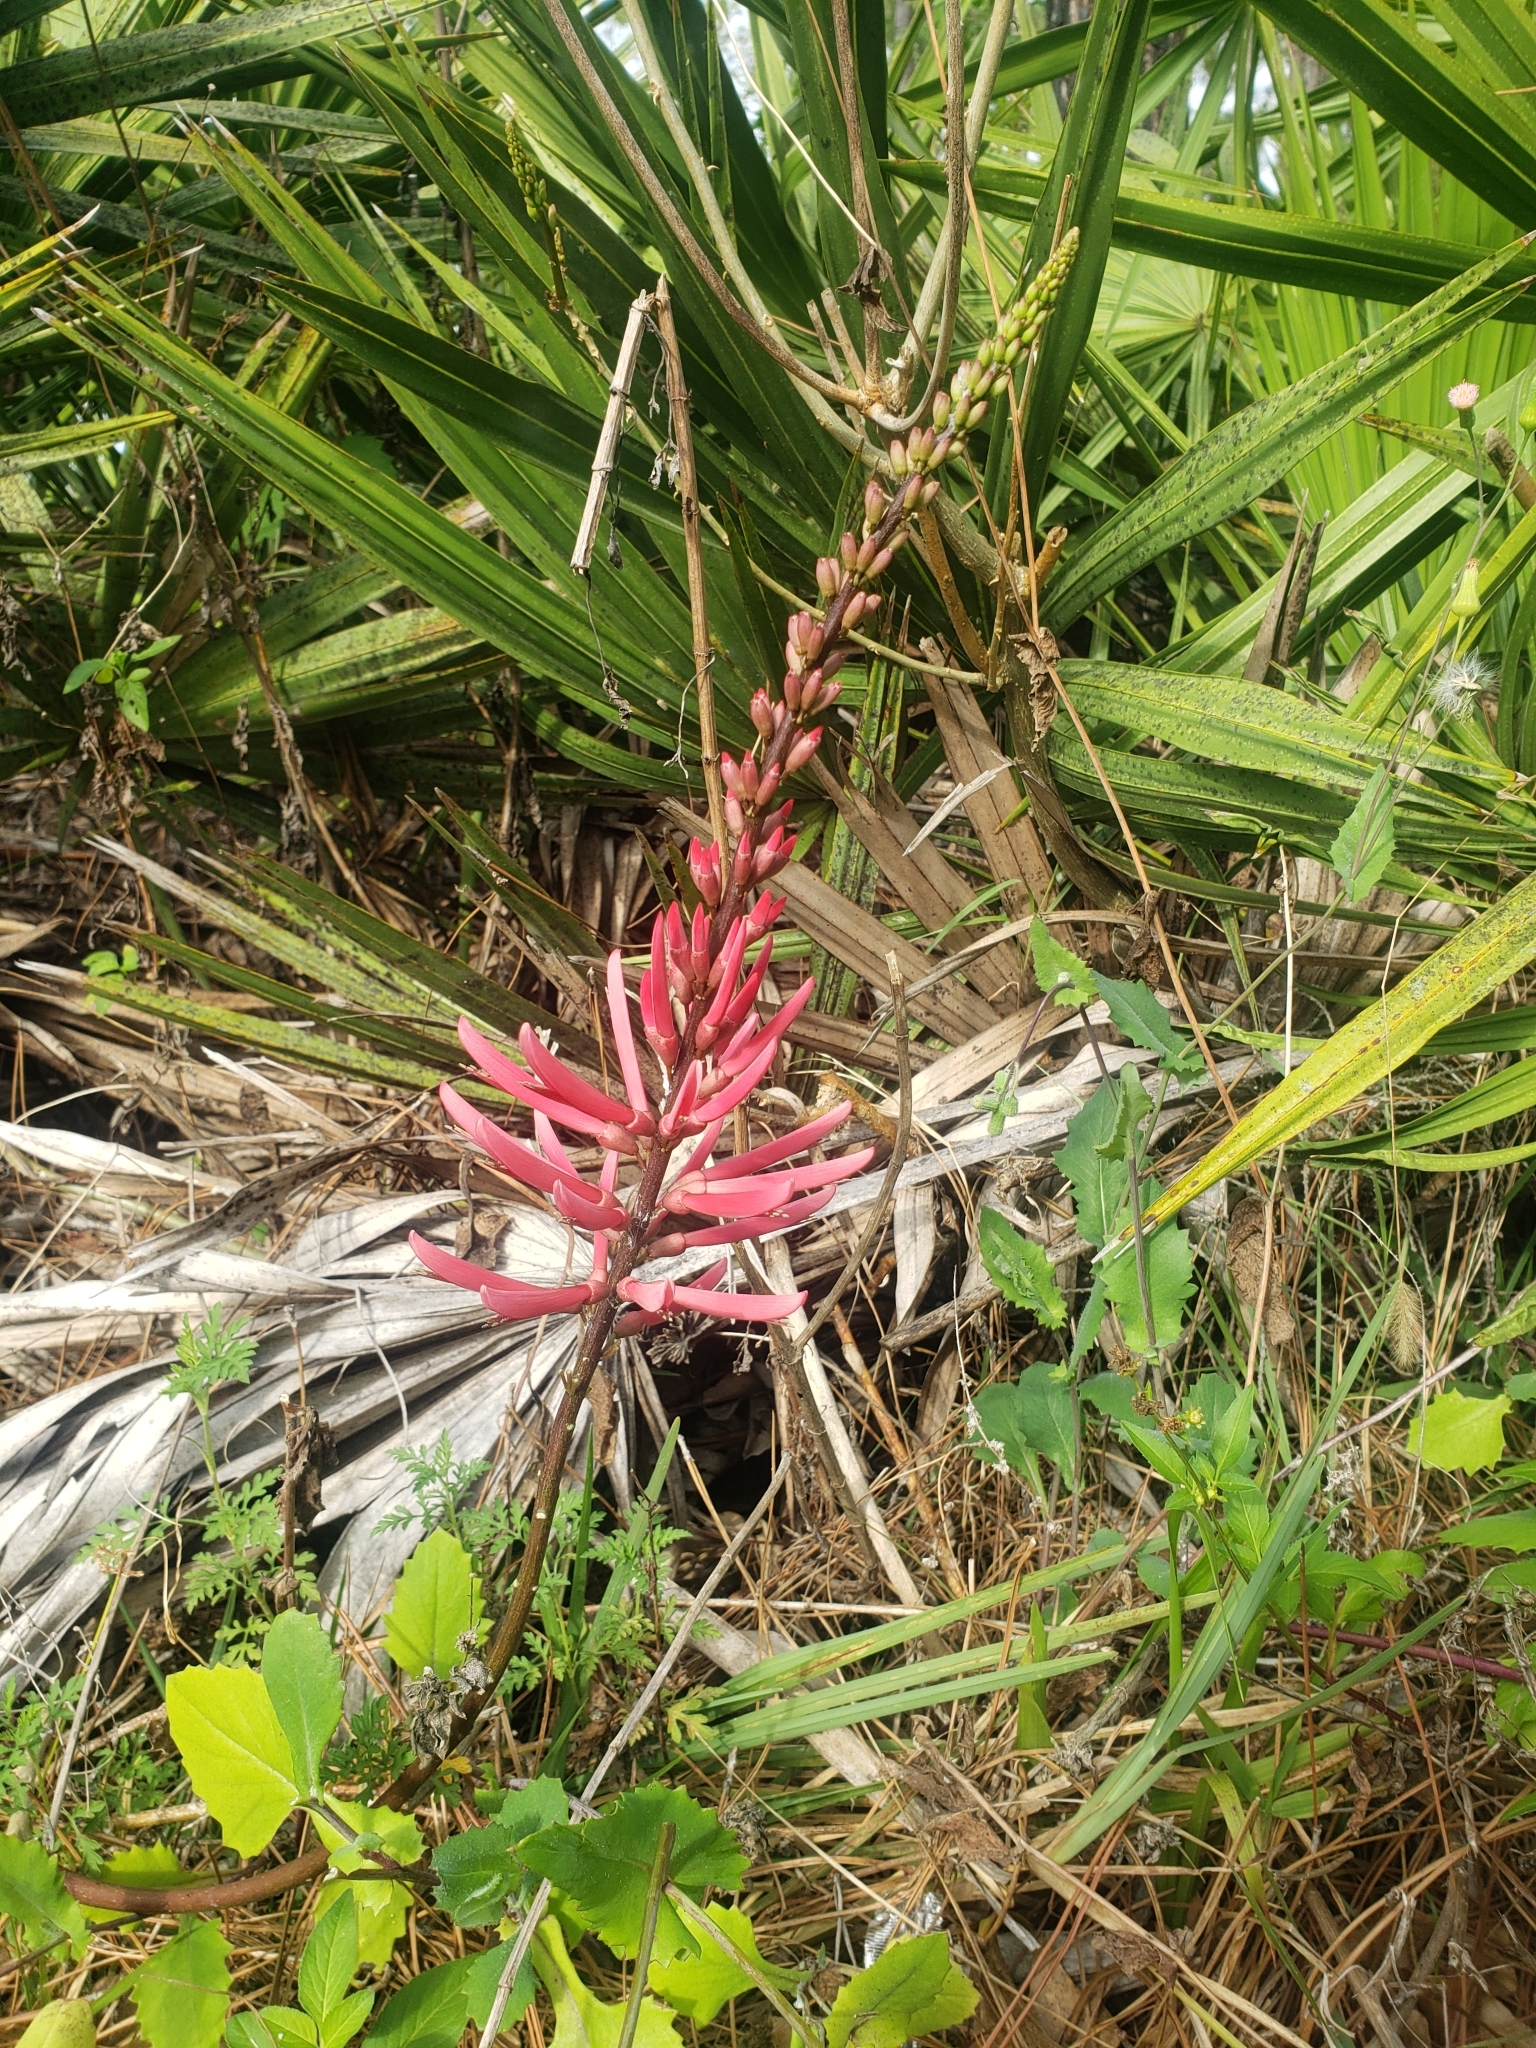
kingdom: Plantae
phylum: Tracheophyta
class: Magnoliopsida
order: Fabales
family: Fabaceae
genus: Erythrina
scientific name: Erythrina herbacea
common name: Coral-bean
